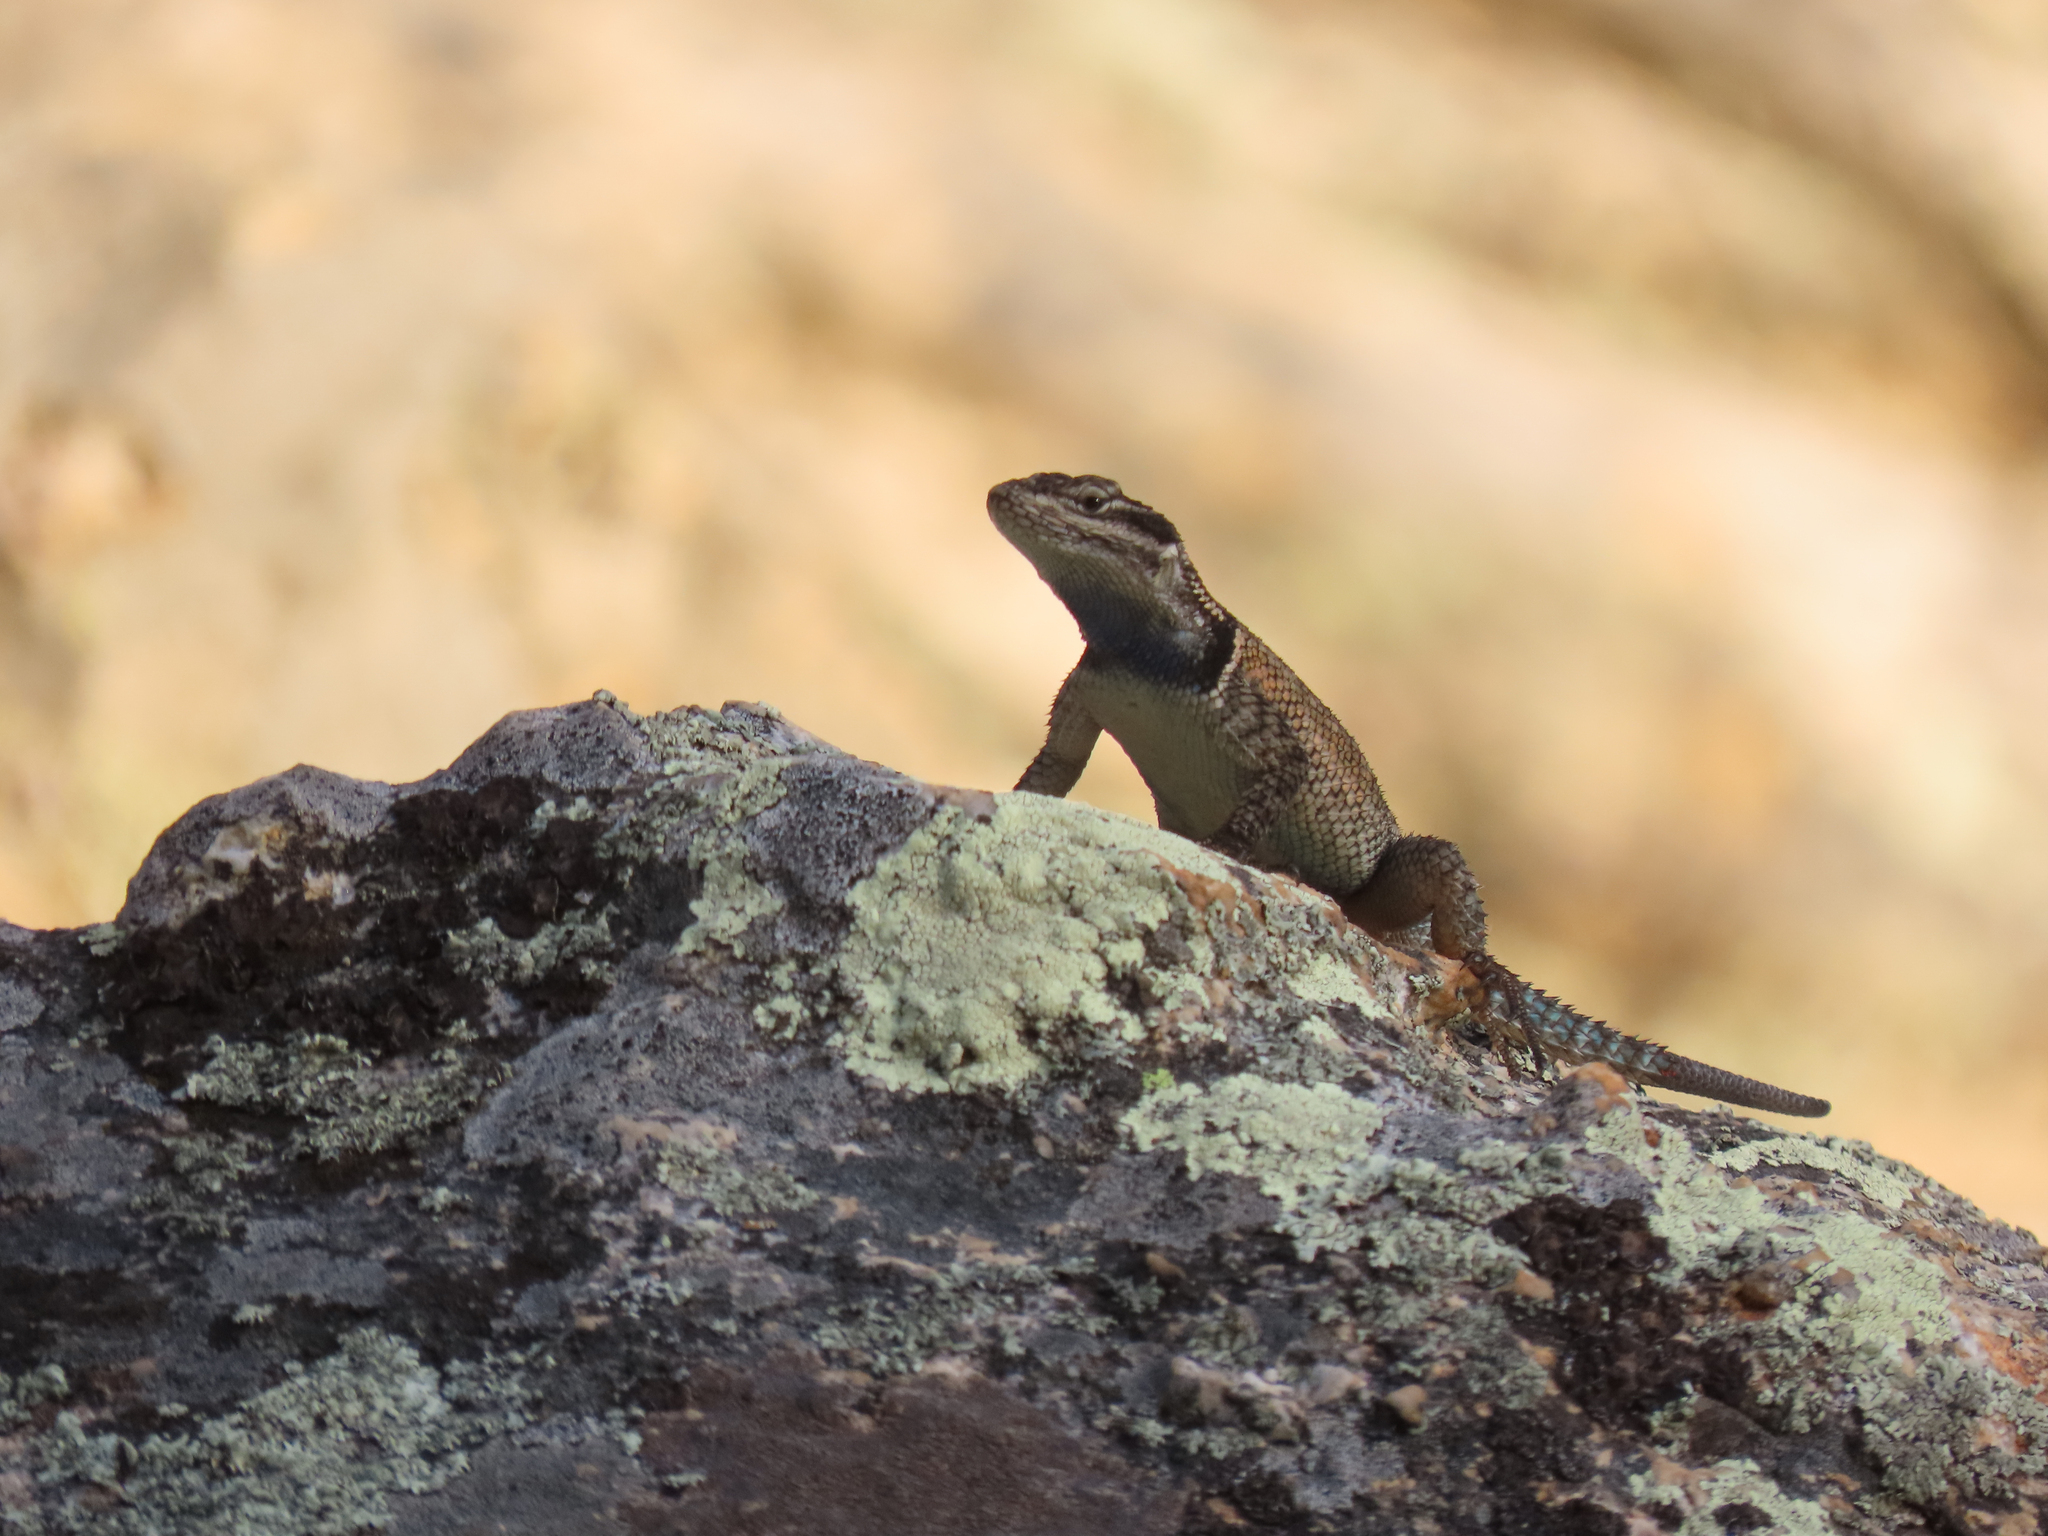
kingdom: Animalia
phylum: Chordata
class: Squamata
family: Phrynosomatidae
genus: Sceloporus
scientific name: Sceloporus jarrovii
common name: Yarrow's spiny lizard
